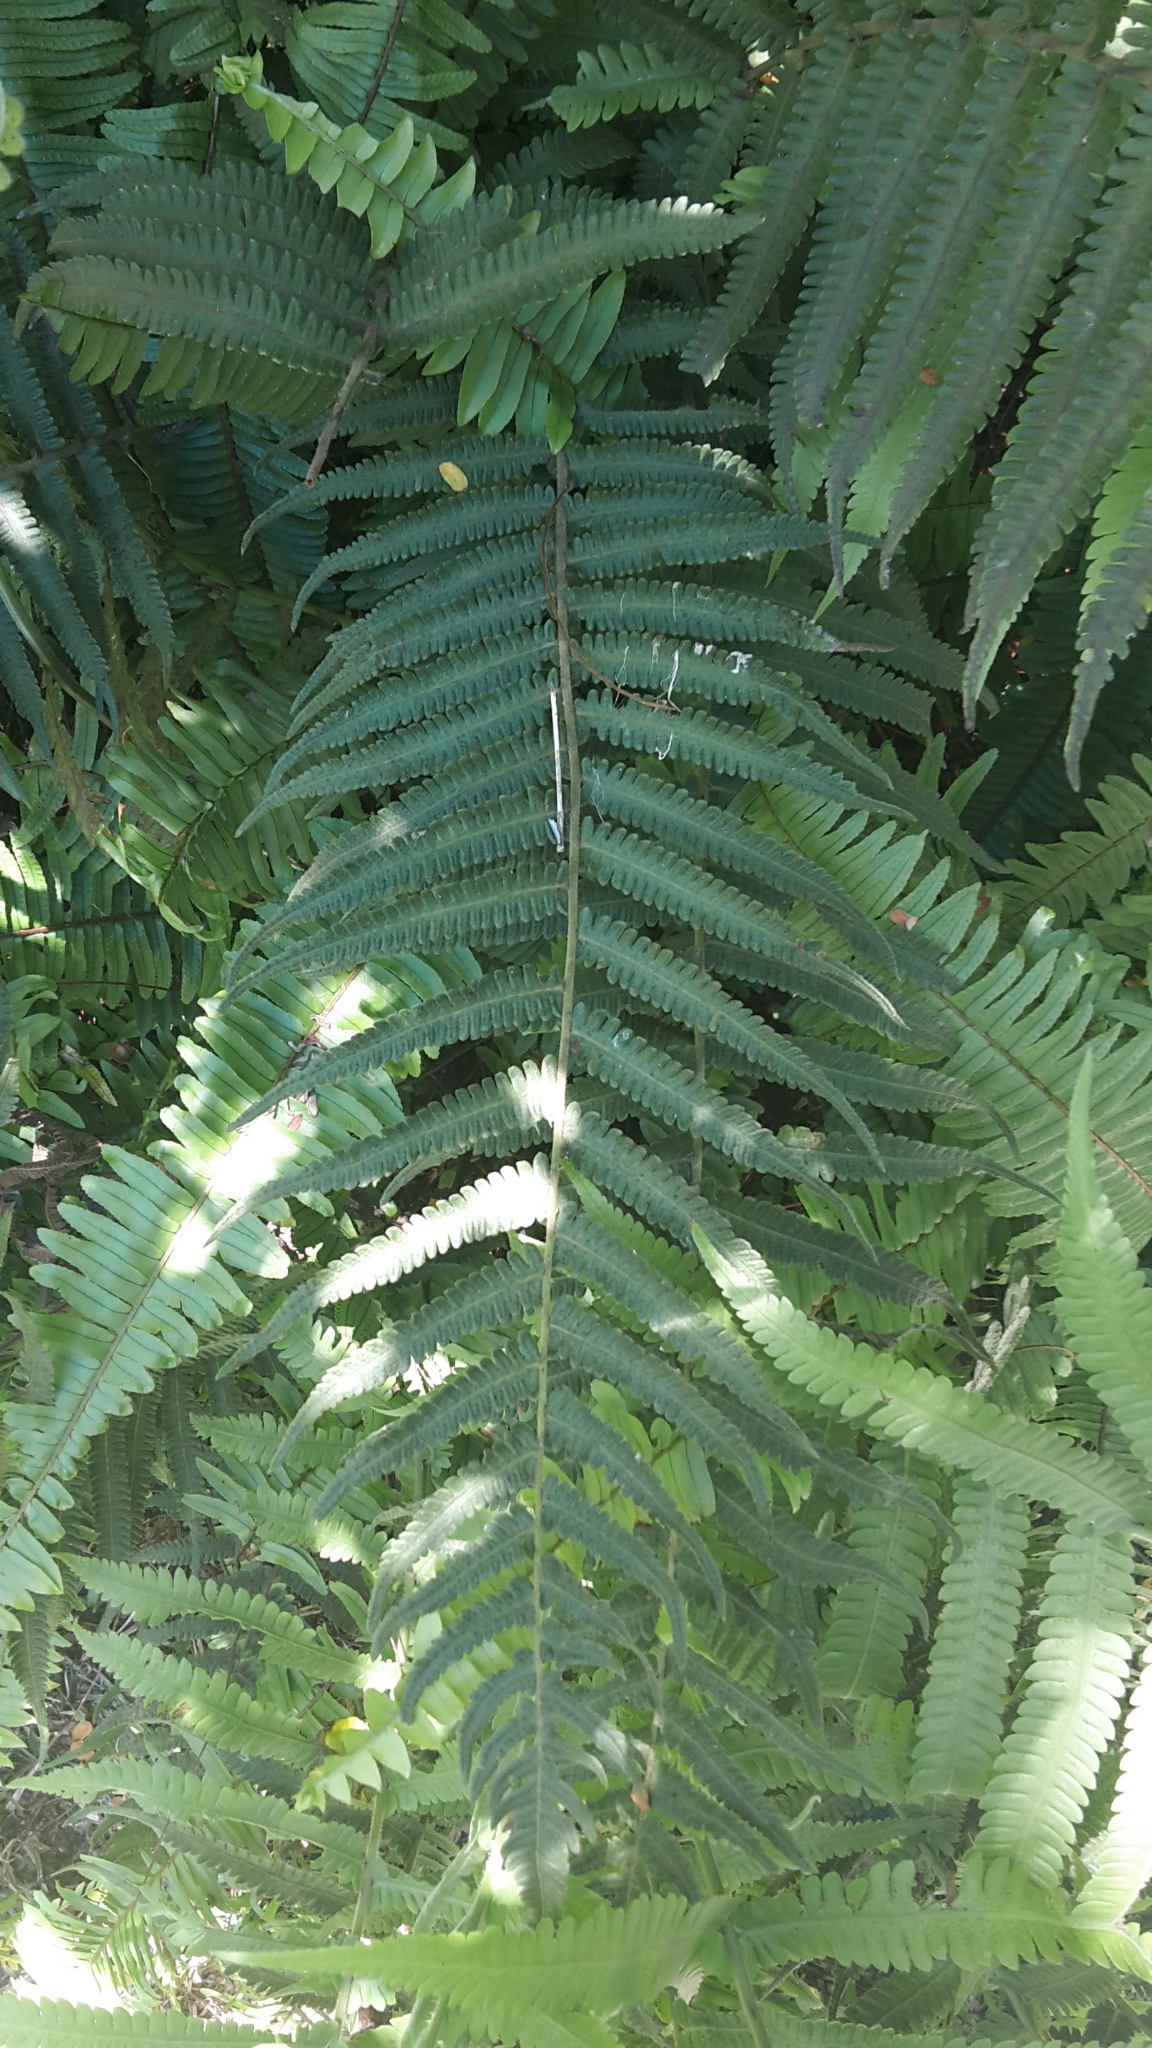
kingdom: Plantae
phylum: Tracheophyta
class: Polypodiopsida
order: Polypodiales
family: Thelypteridaceae
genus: Christella
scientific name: Christella parasitica
